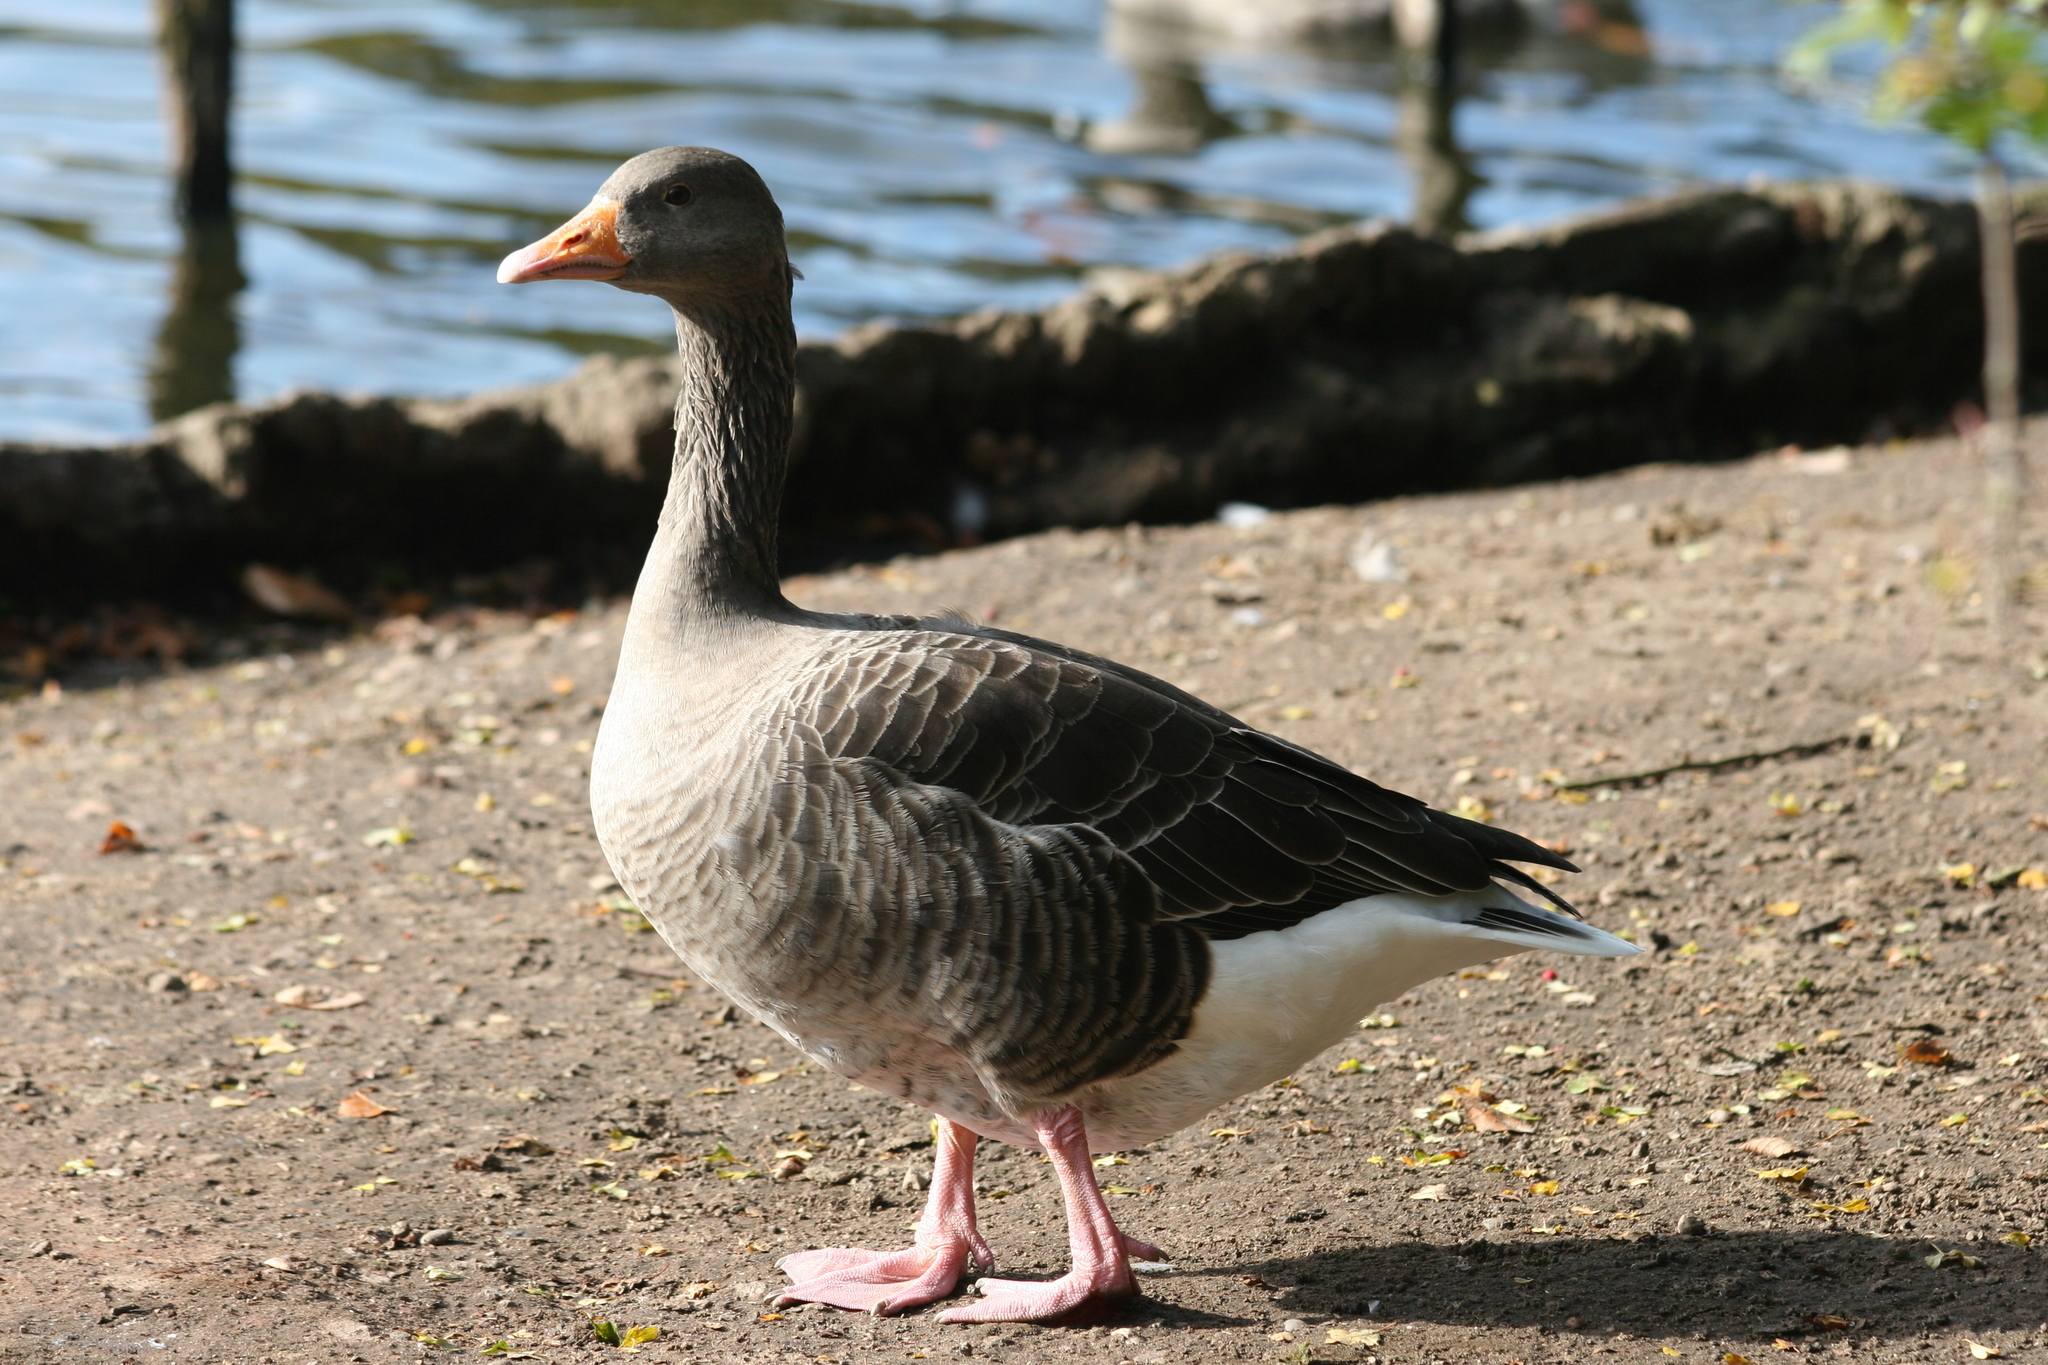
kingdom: Animalia
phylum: Chordata
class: Aves
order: Anseriformes
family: Anatidae
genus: Anser
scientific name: Anser anser
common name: Greylag goose
